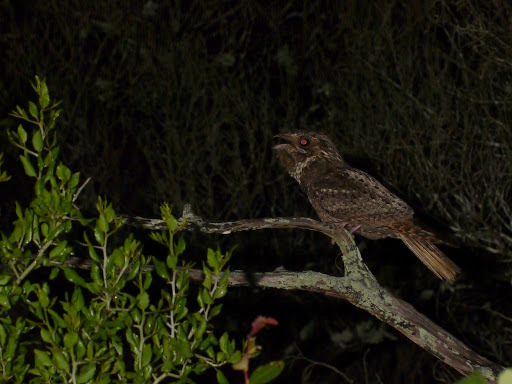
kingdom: Animalia
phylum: Chordata
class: Aves
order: Caprimulgiformes
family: Caprimulgidae
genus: Antrostomus
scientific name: Antrostomus carolinensis
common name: Chuck-will's-widow
